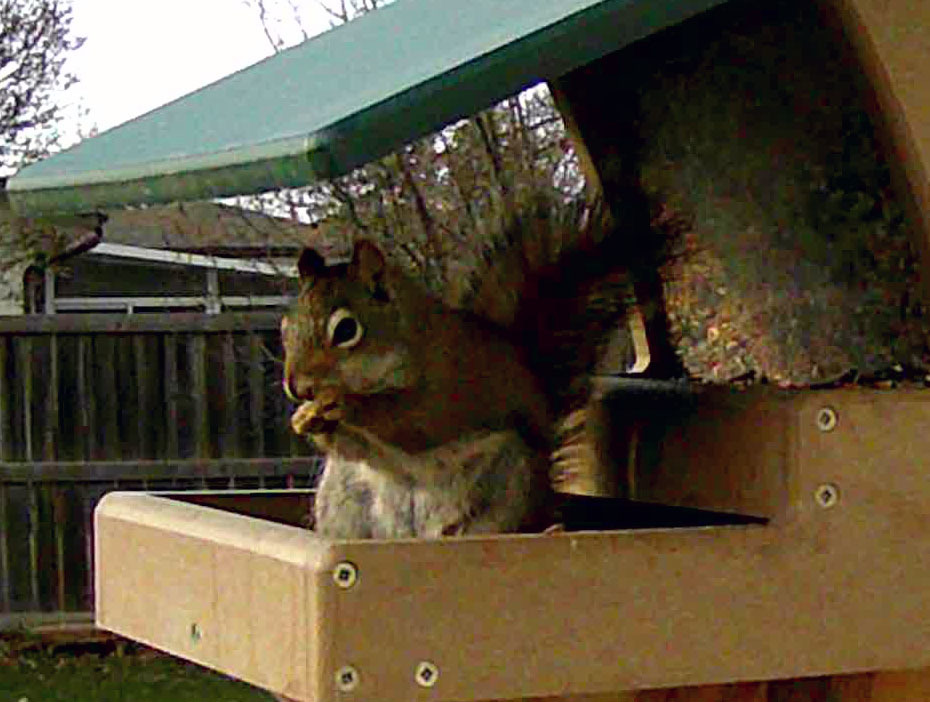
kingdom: Animalia
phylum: Chordata
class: Mammalia
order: Rodentia
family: Sciuridae
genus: Tamiasciurus
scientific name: Tamiasciurus hudsonicus
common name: Red squirrel
